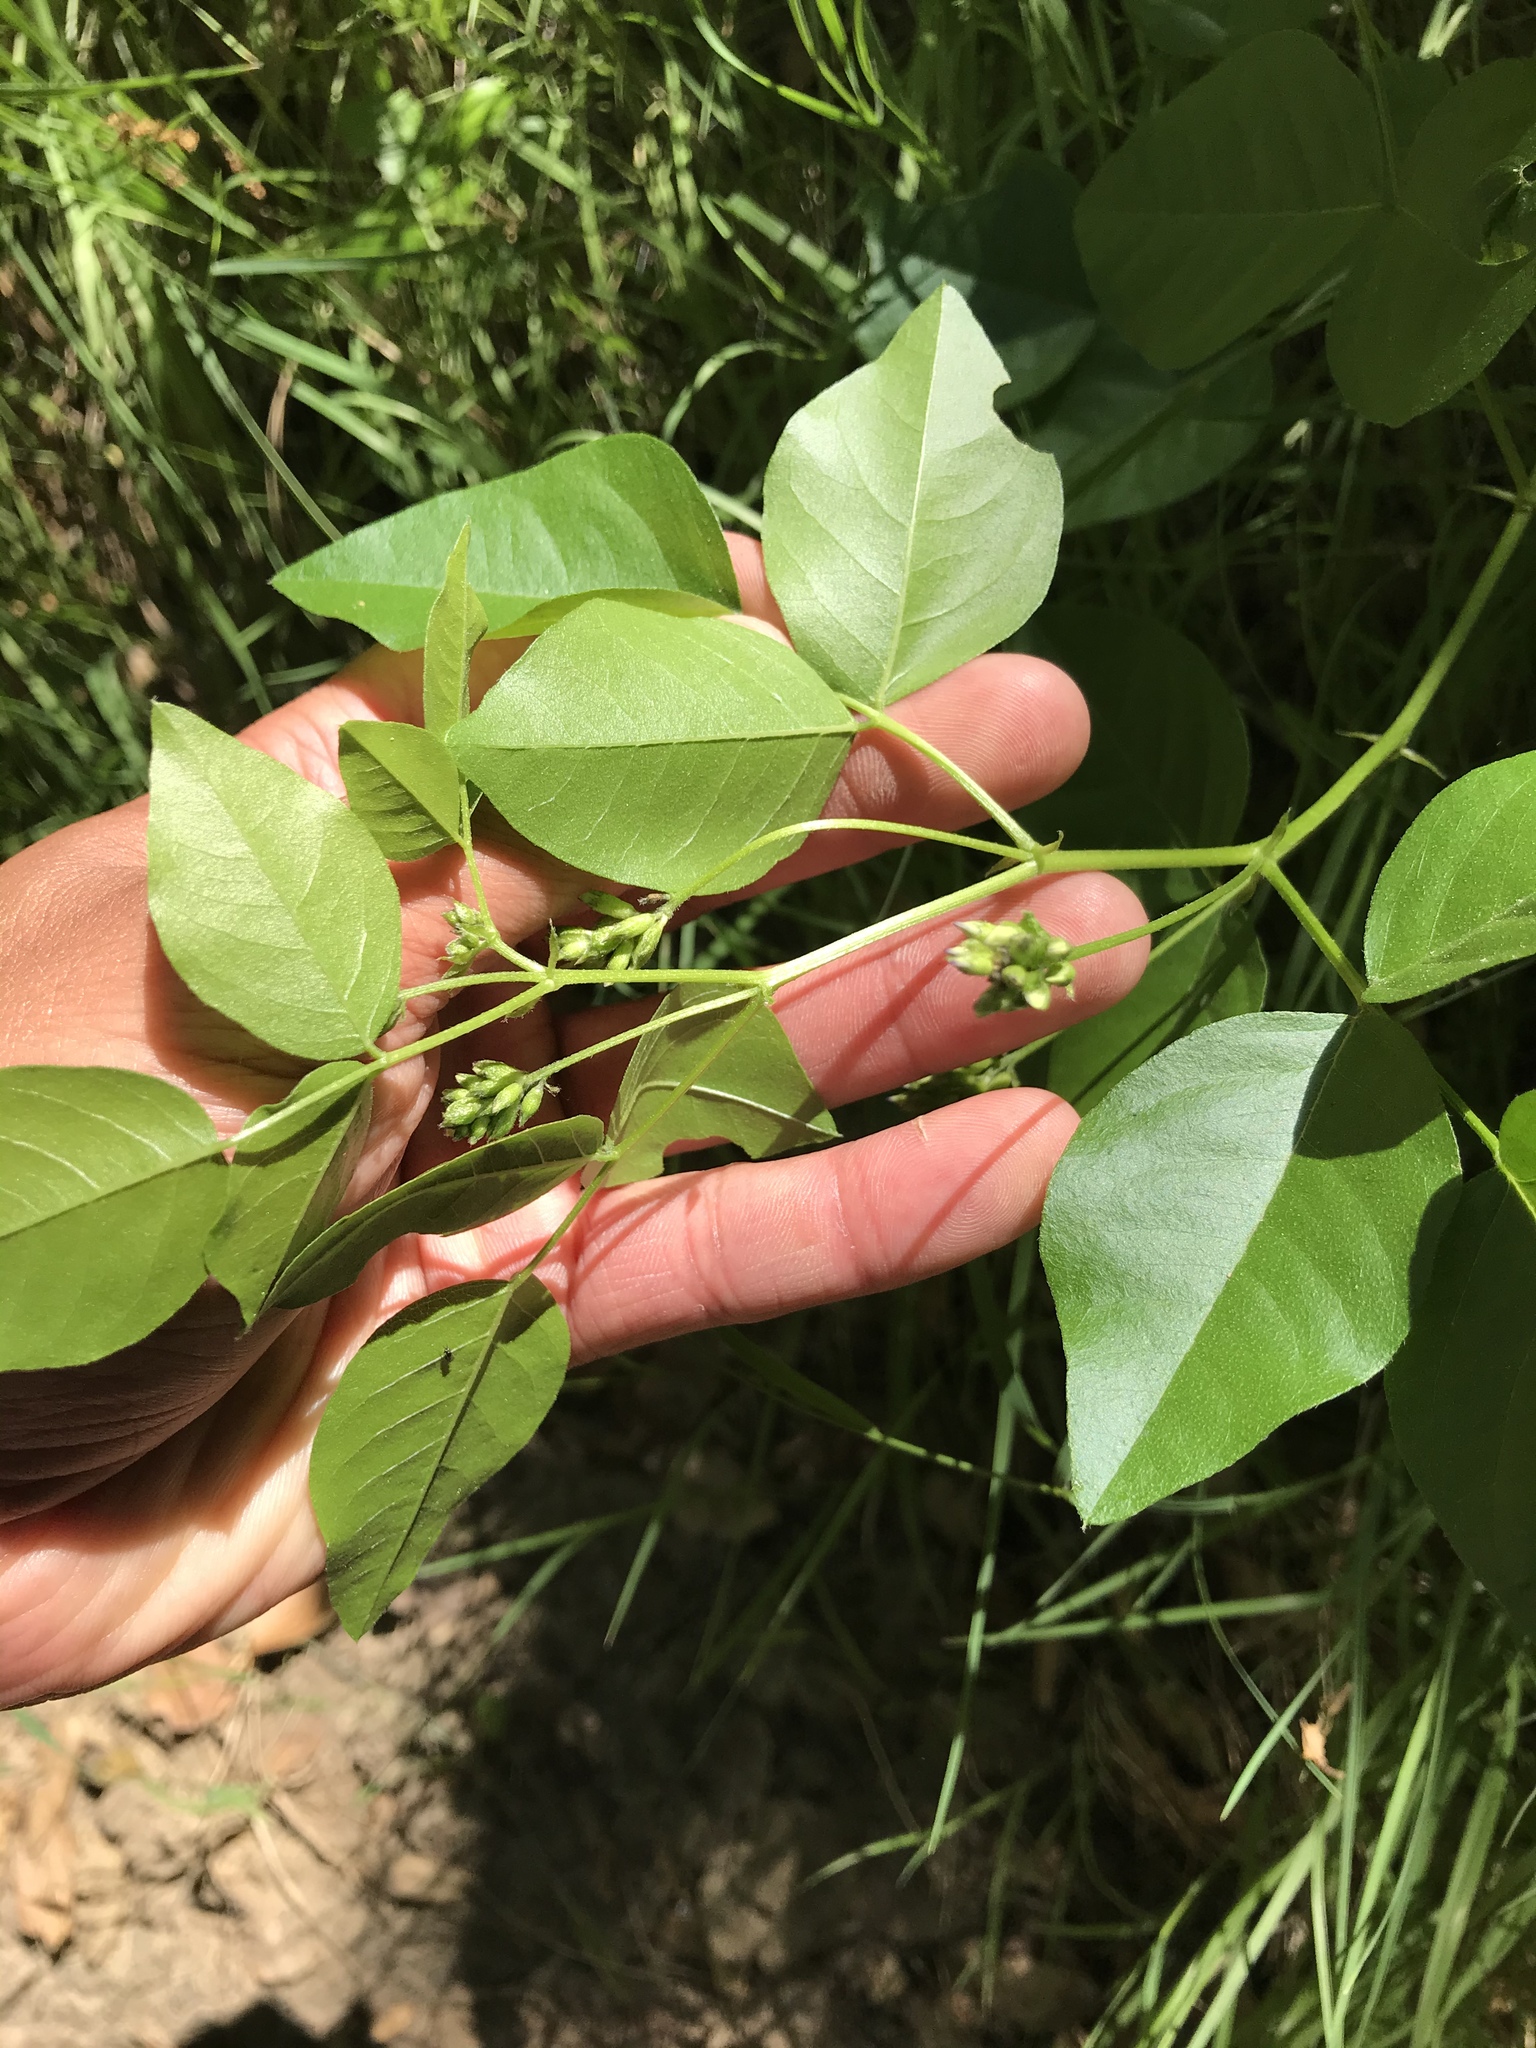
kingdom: Plantae
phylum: Tracheophyta
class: Magnoliopsida
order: Fabales
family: Fabaceae
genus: Rupertia
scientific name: Rupertia physodes
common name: California-tea
